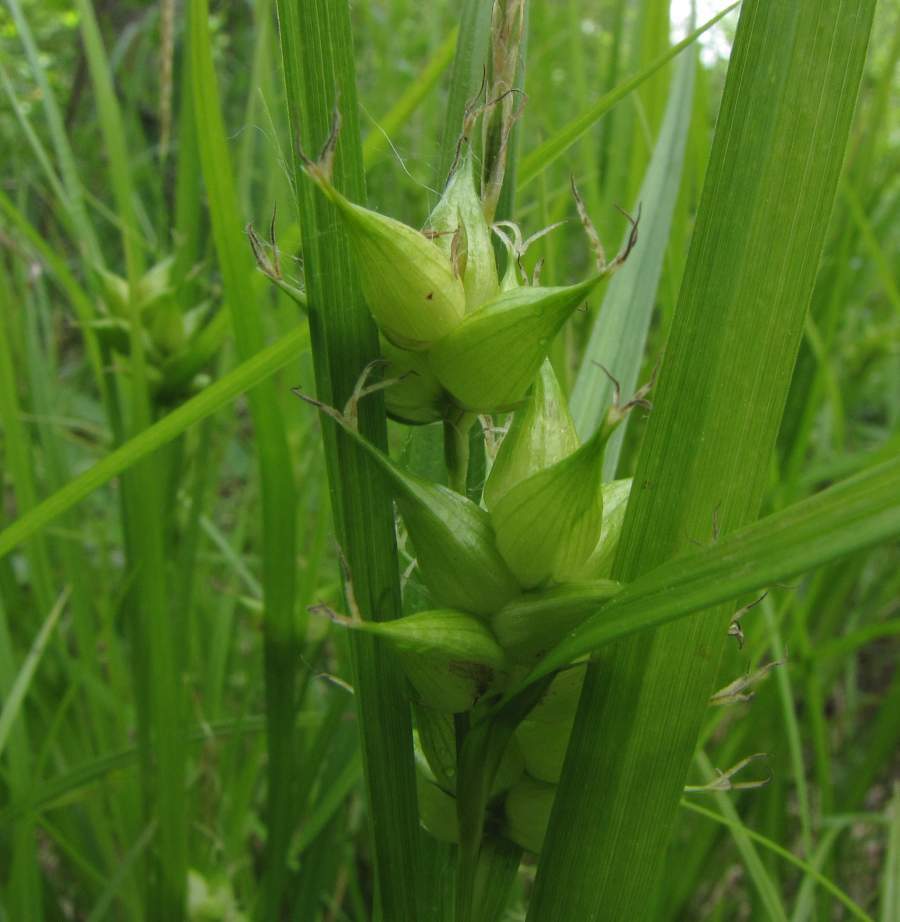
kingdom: Plantae
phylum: Tracheophyta
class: Liliopsida
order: Poales
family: Cyperaceae
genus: Carex
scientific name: Carex intumescens
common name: Greater bladder sedge
